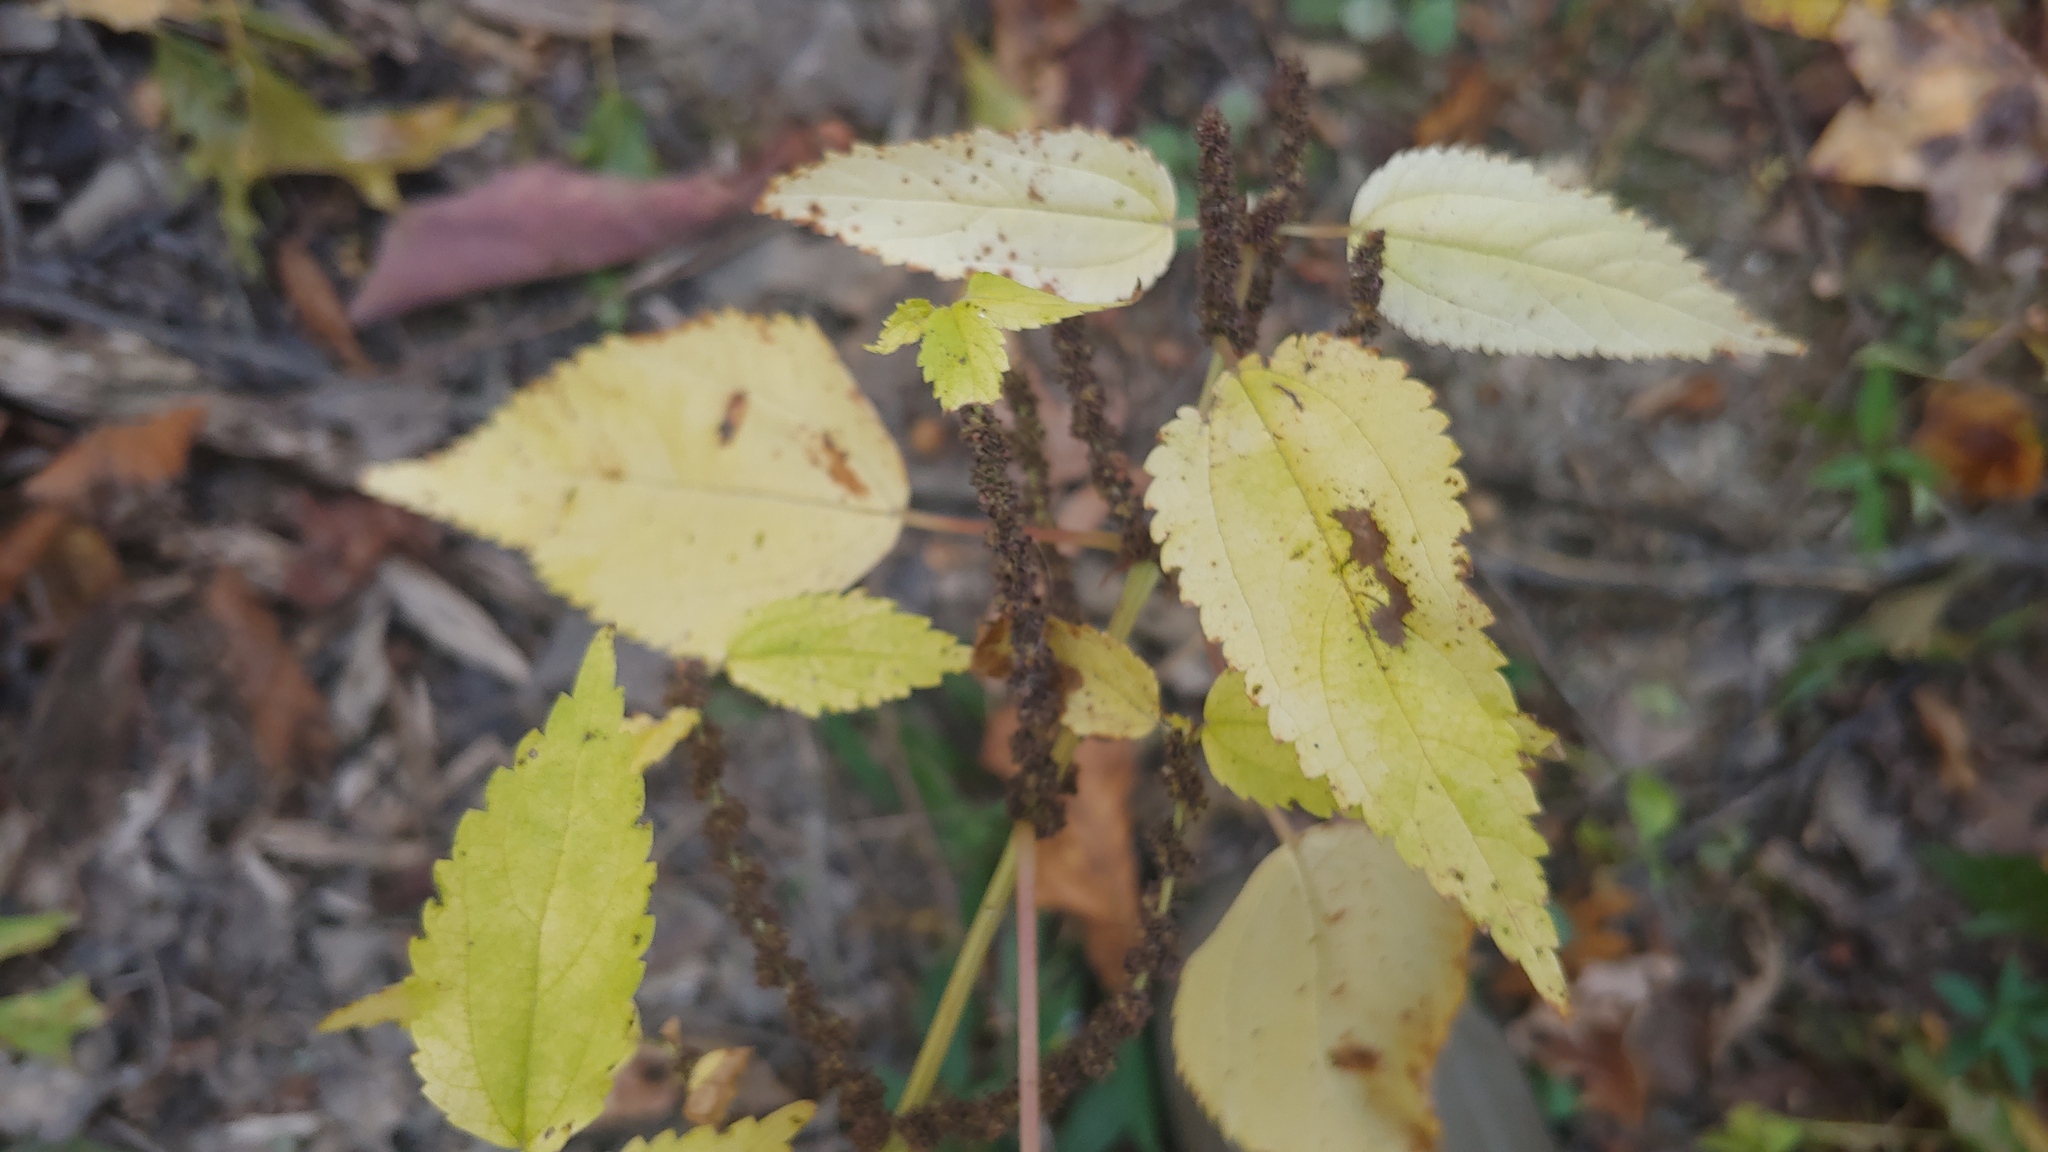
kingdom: Plantae
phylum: Tracheophyta
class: Magnoliopsida
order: Rosales
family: Urticaceae
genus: Boehmeria
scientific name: Boehmeria cylindrica
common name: Bog-hemp
